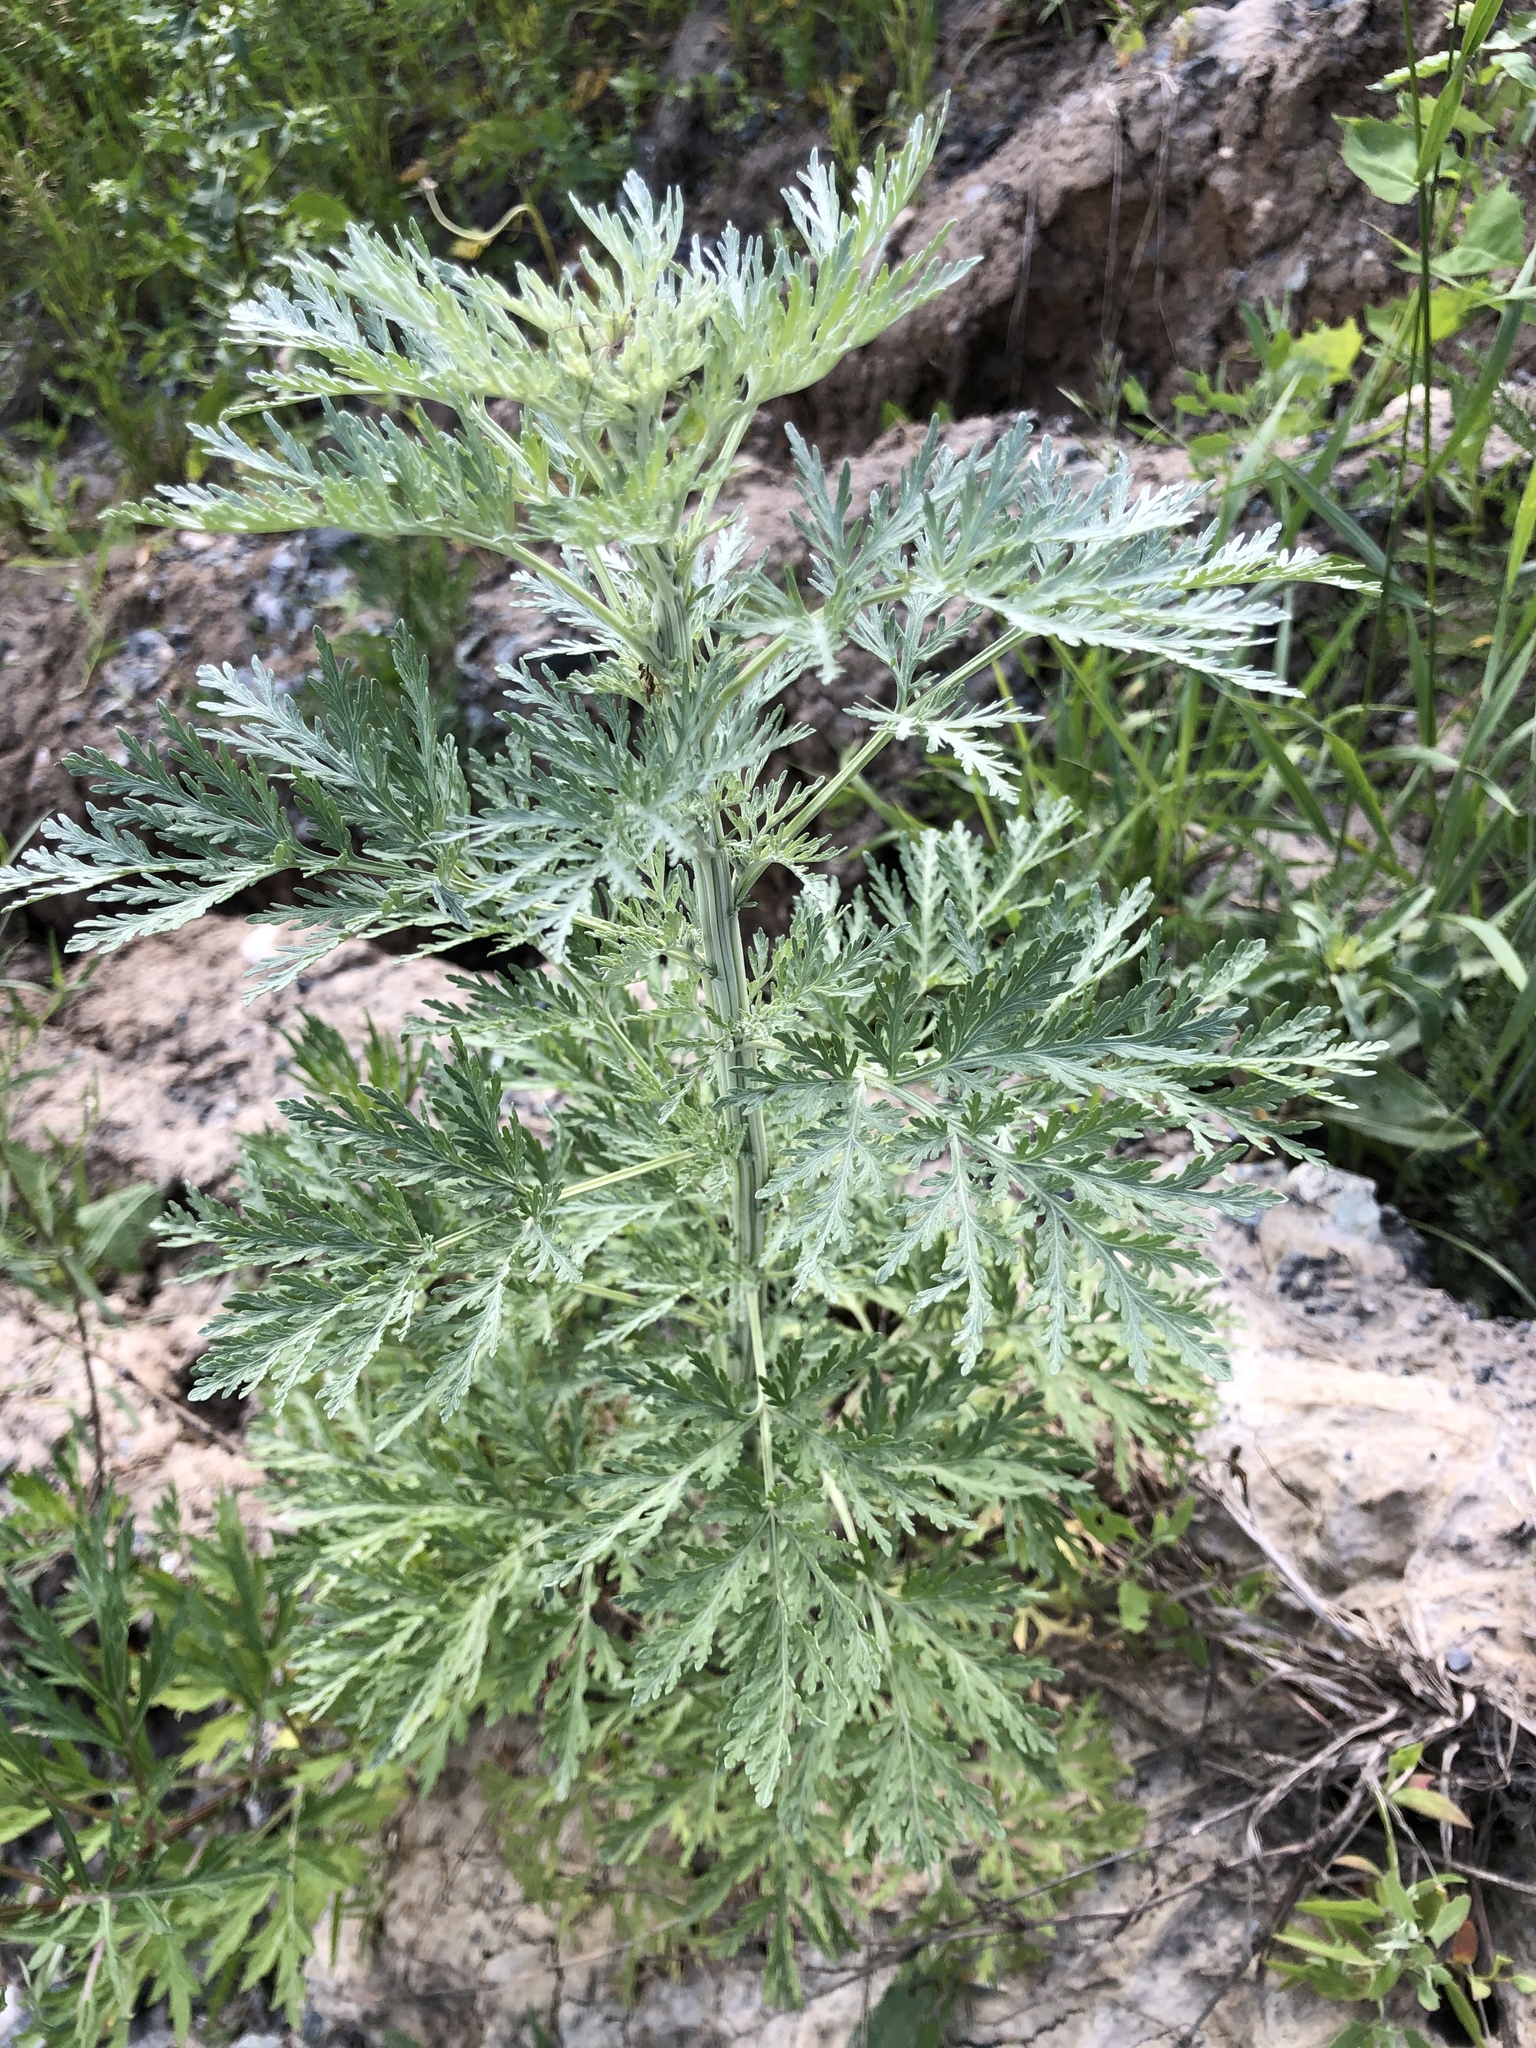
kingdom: Plantae
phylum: Tracheophyta
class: Magnoliopsida
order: Asterales
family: Asteraceae
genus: Artemisia
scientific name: Artemisia sieversiana
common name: Sieversian wormwood
